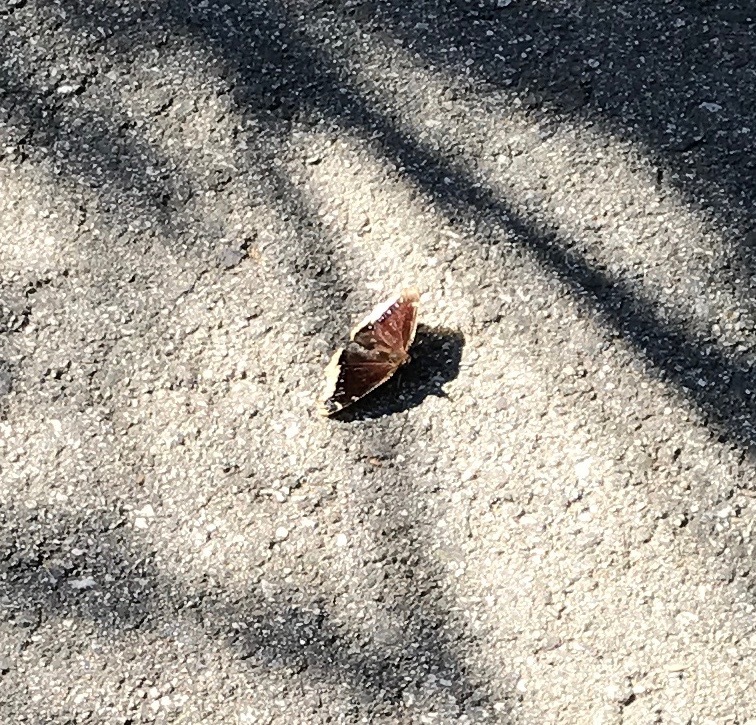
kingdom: Animalia
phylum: Arthropoda
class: Insecta
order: Lepidoptera
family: Nymphalidae
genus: Nymphalis
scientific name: Nymphalis antiopa
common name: Camberwell beauty
